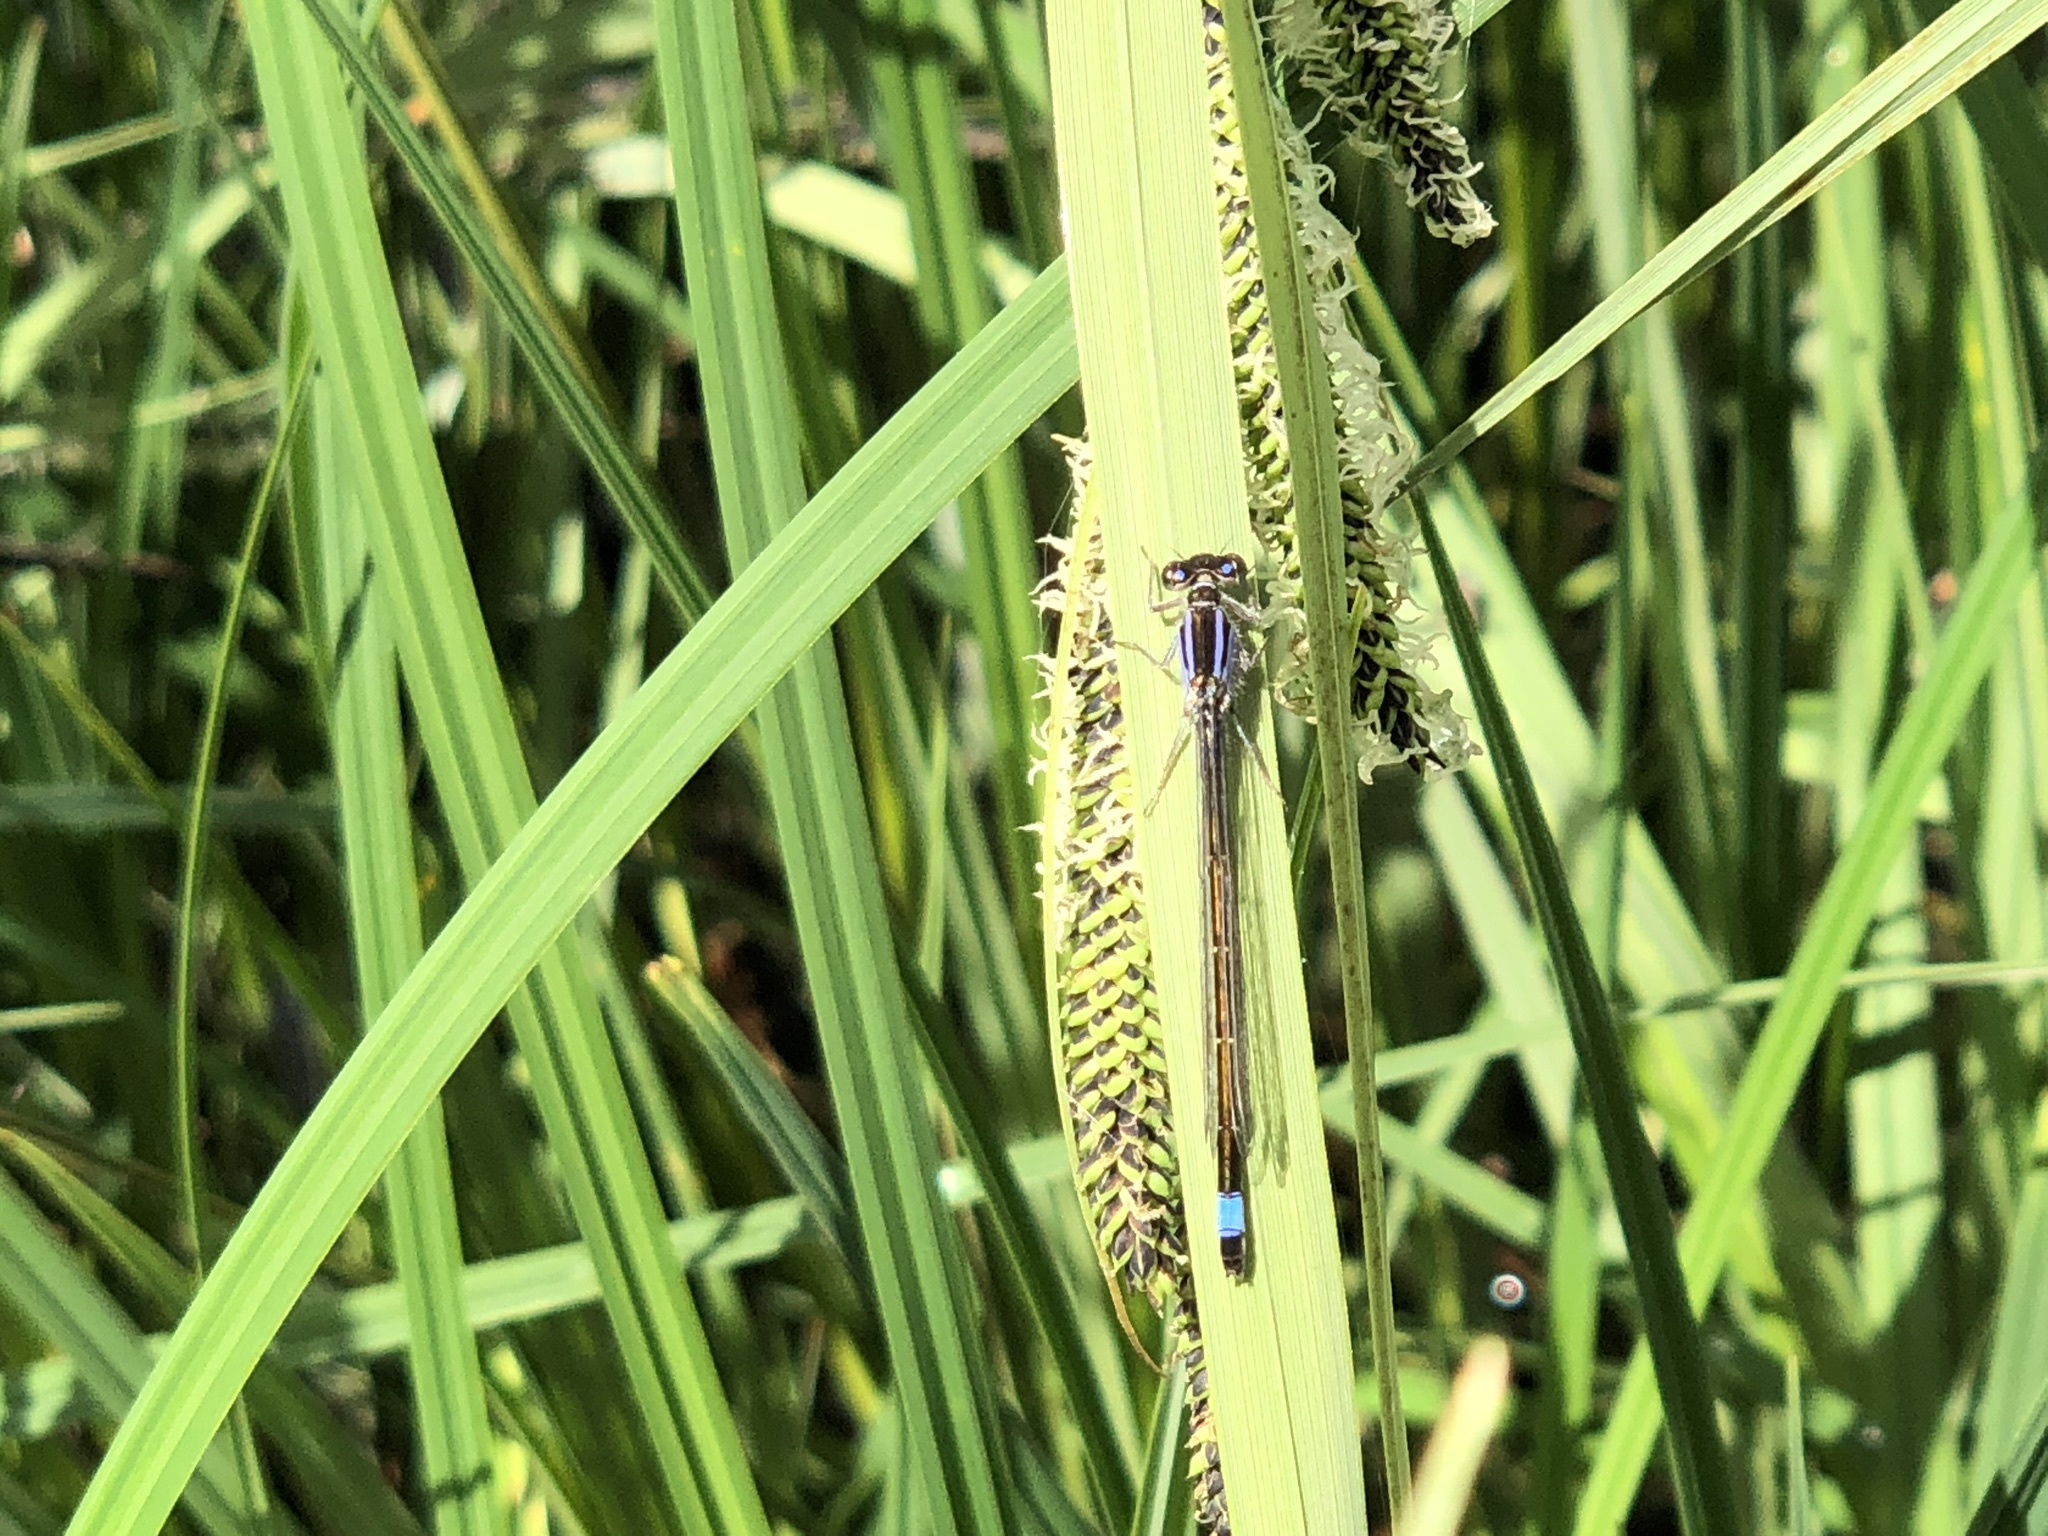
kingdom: Animalia
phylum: Arthropoda
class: Insecta
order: Odonata
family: Coenagrionidae
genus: Ischnura
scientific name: Ischnura elegans
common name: Blue-tailed damselfly
